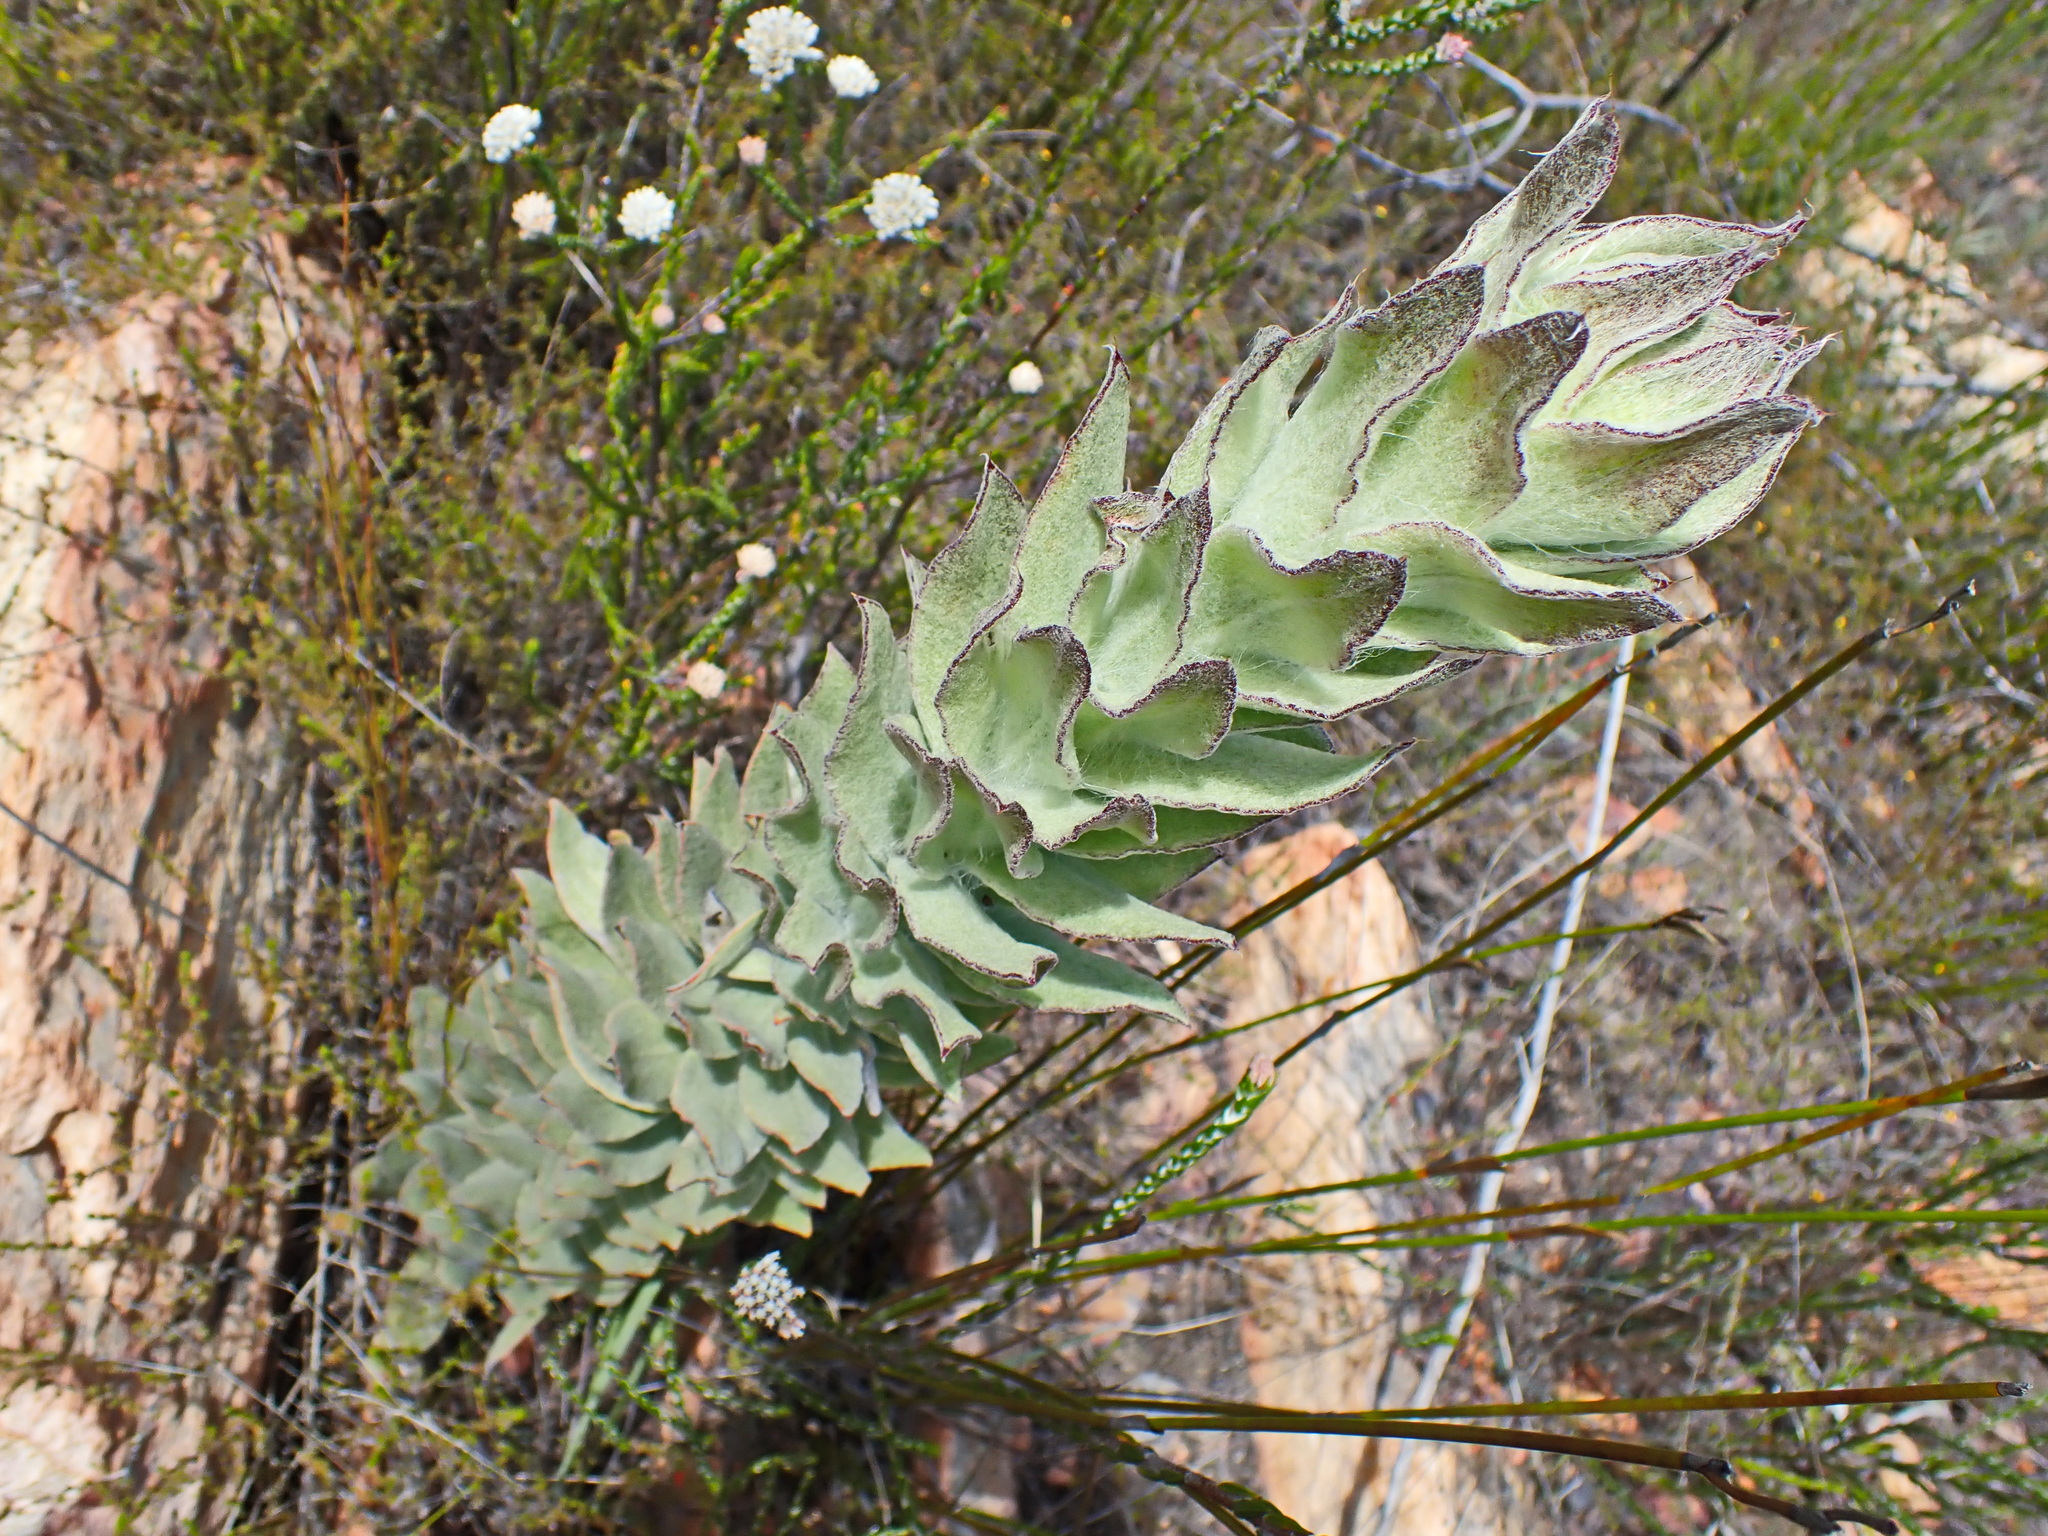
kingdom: Plantae
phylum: Tracheophyta
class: Magnoliopsida
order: Asterales
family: Asteraceae
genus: Syncarpha
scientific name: Syncarpha milleflora
